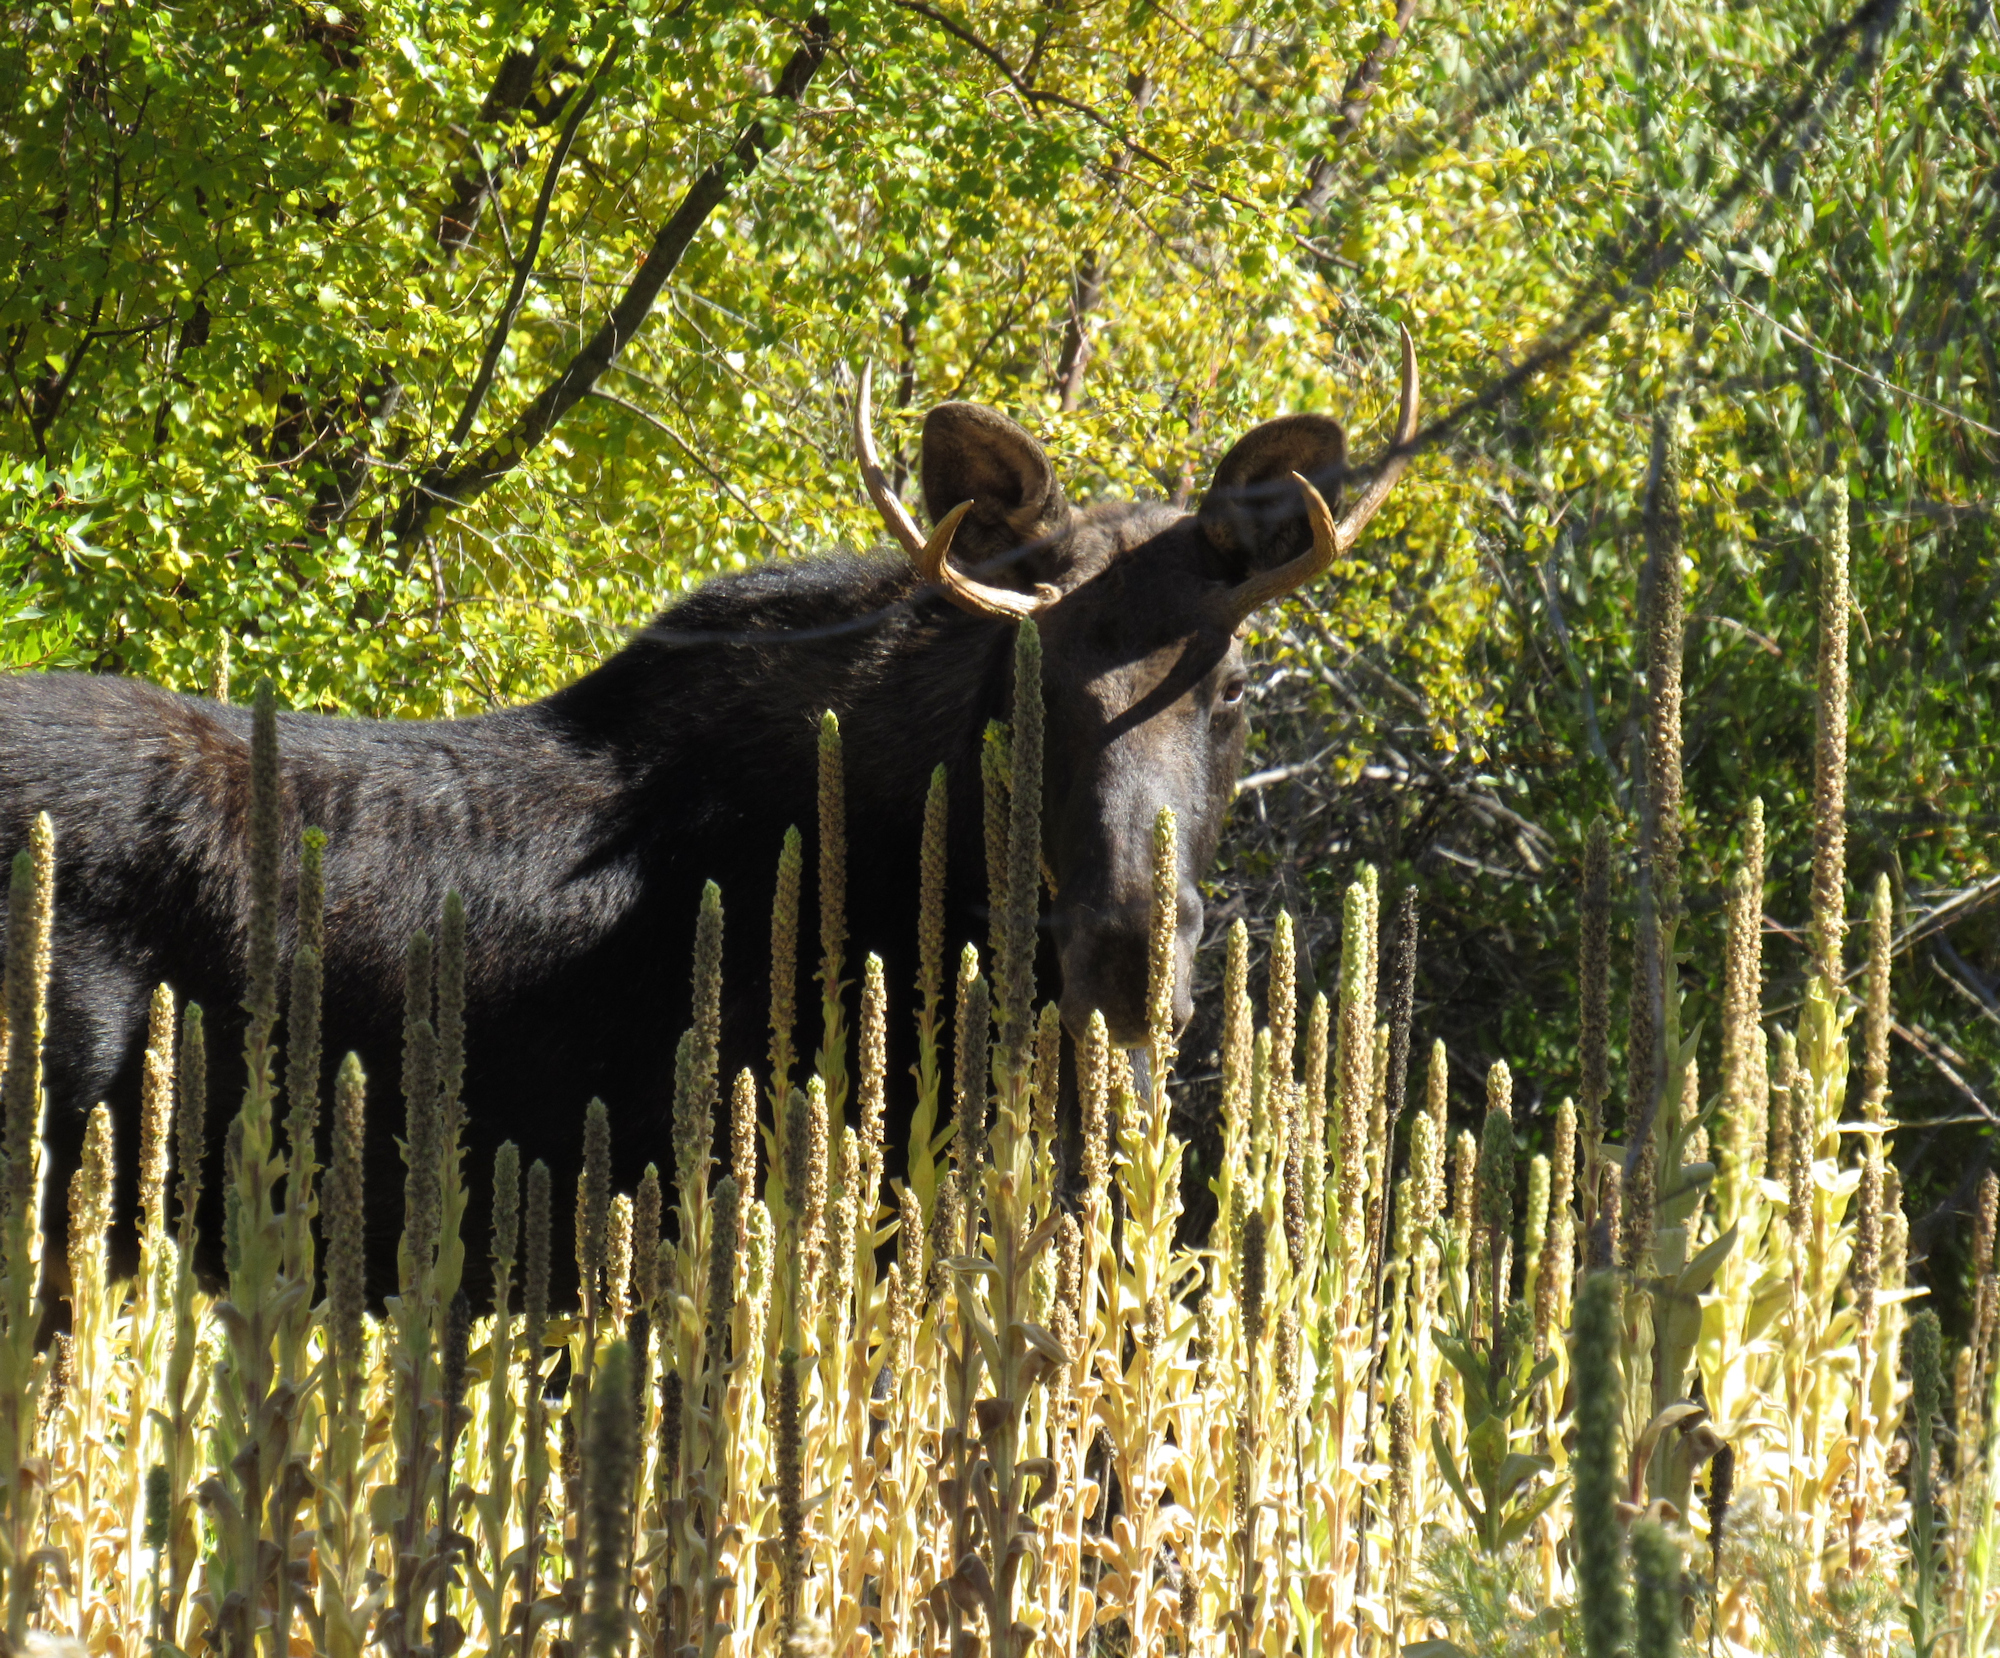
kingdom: Animalia
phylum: Chordata
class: Mammalia
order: Artiodactyla
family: Cervidae
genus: Alces
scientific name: Alces americanus
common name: Moose
